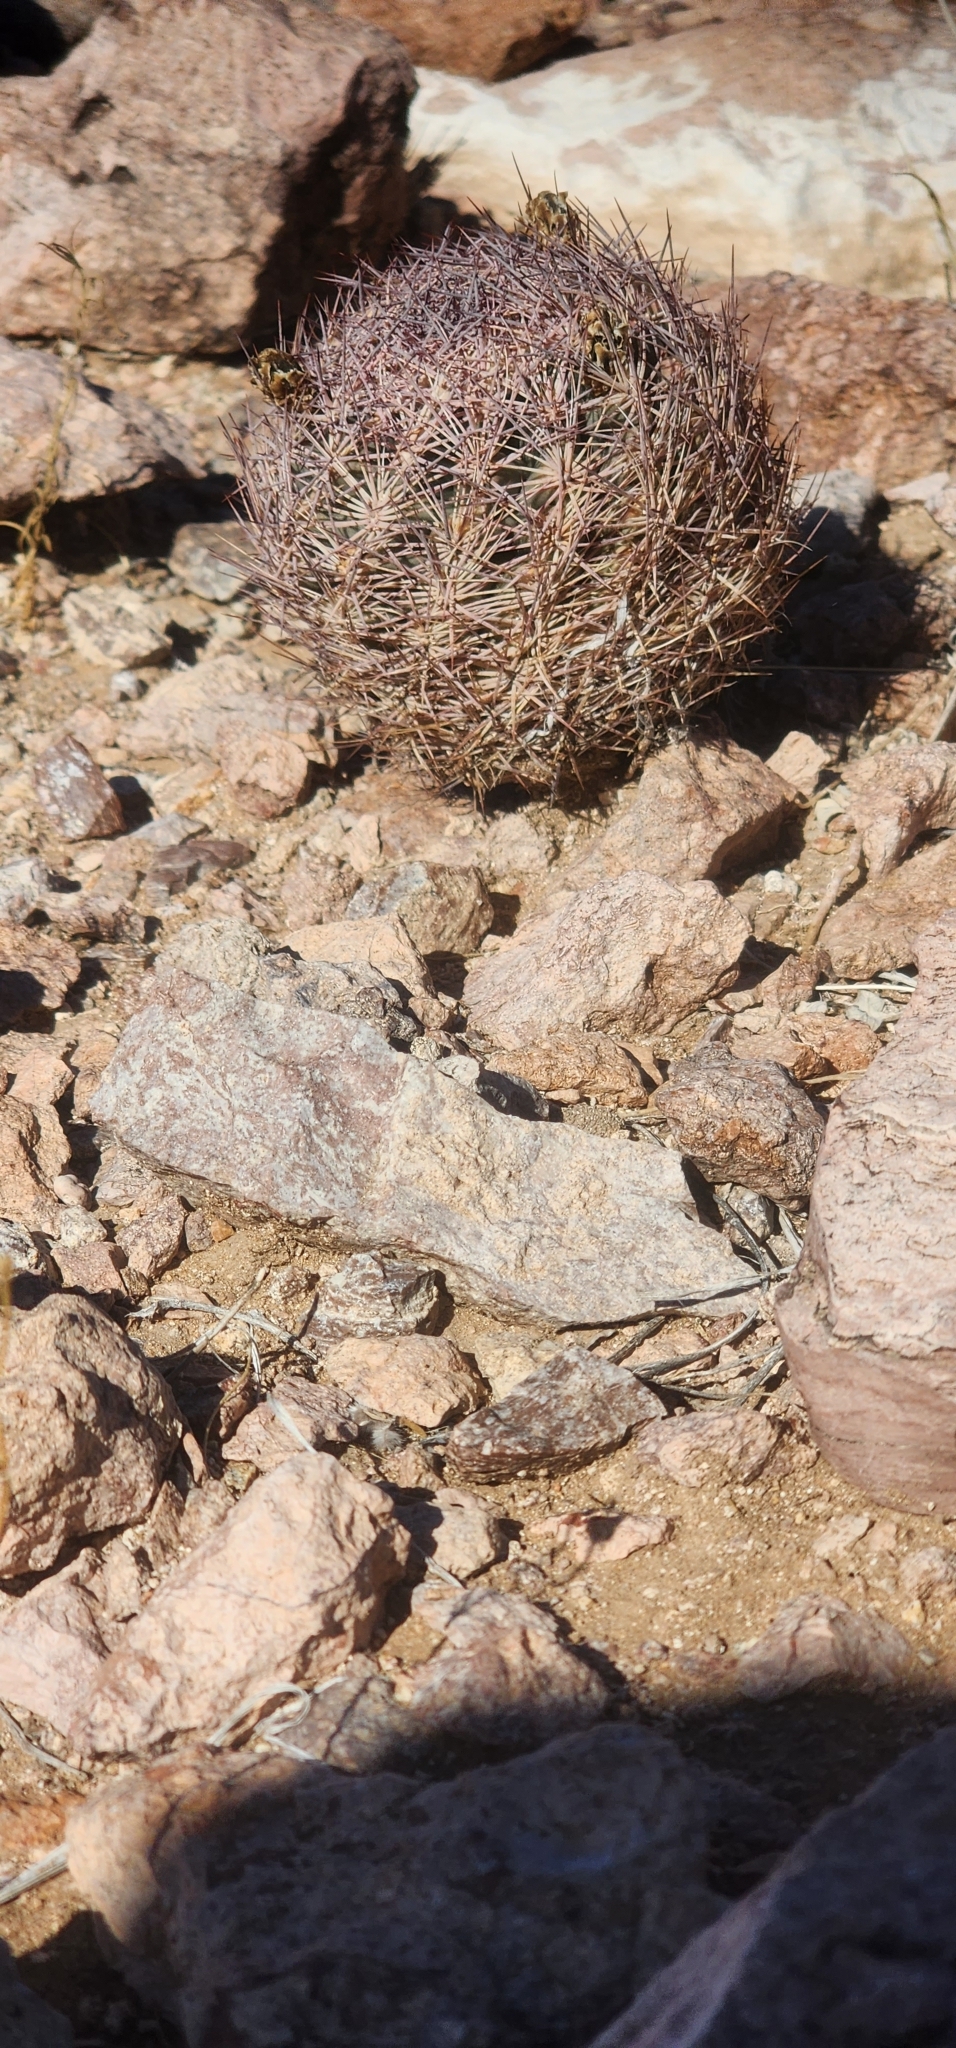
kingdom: Plantae
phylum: Tracheophyta
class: Magnoliopsida
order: Caryophyllales
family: Cactaceae
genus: Sclerocactus
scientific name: Sclerocactus intertextus
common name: White fish-hook cactus
